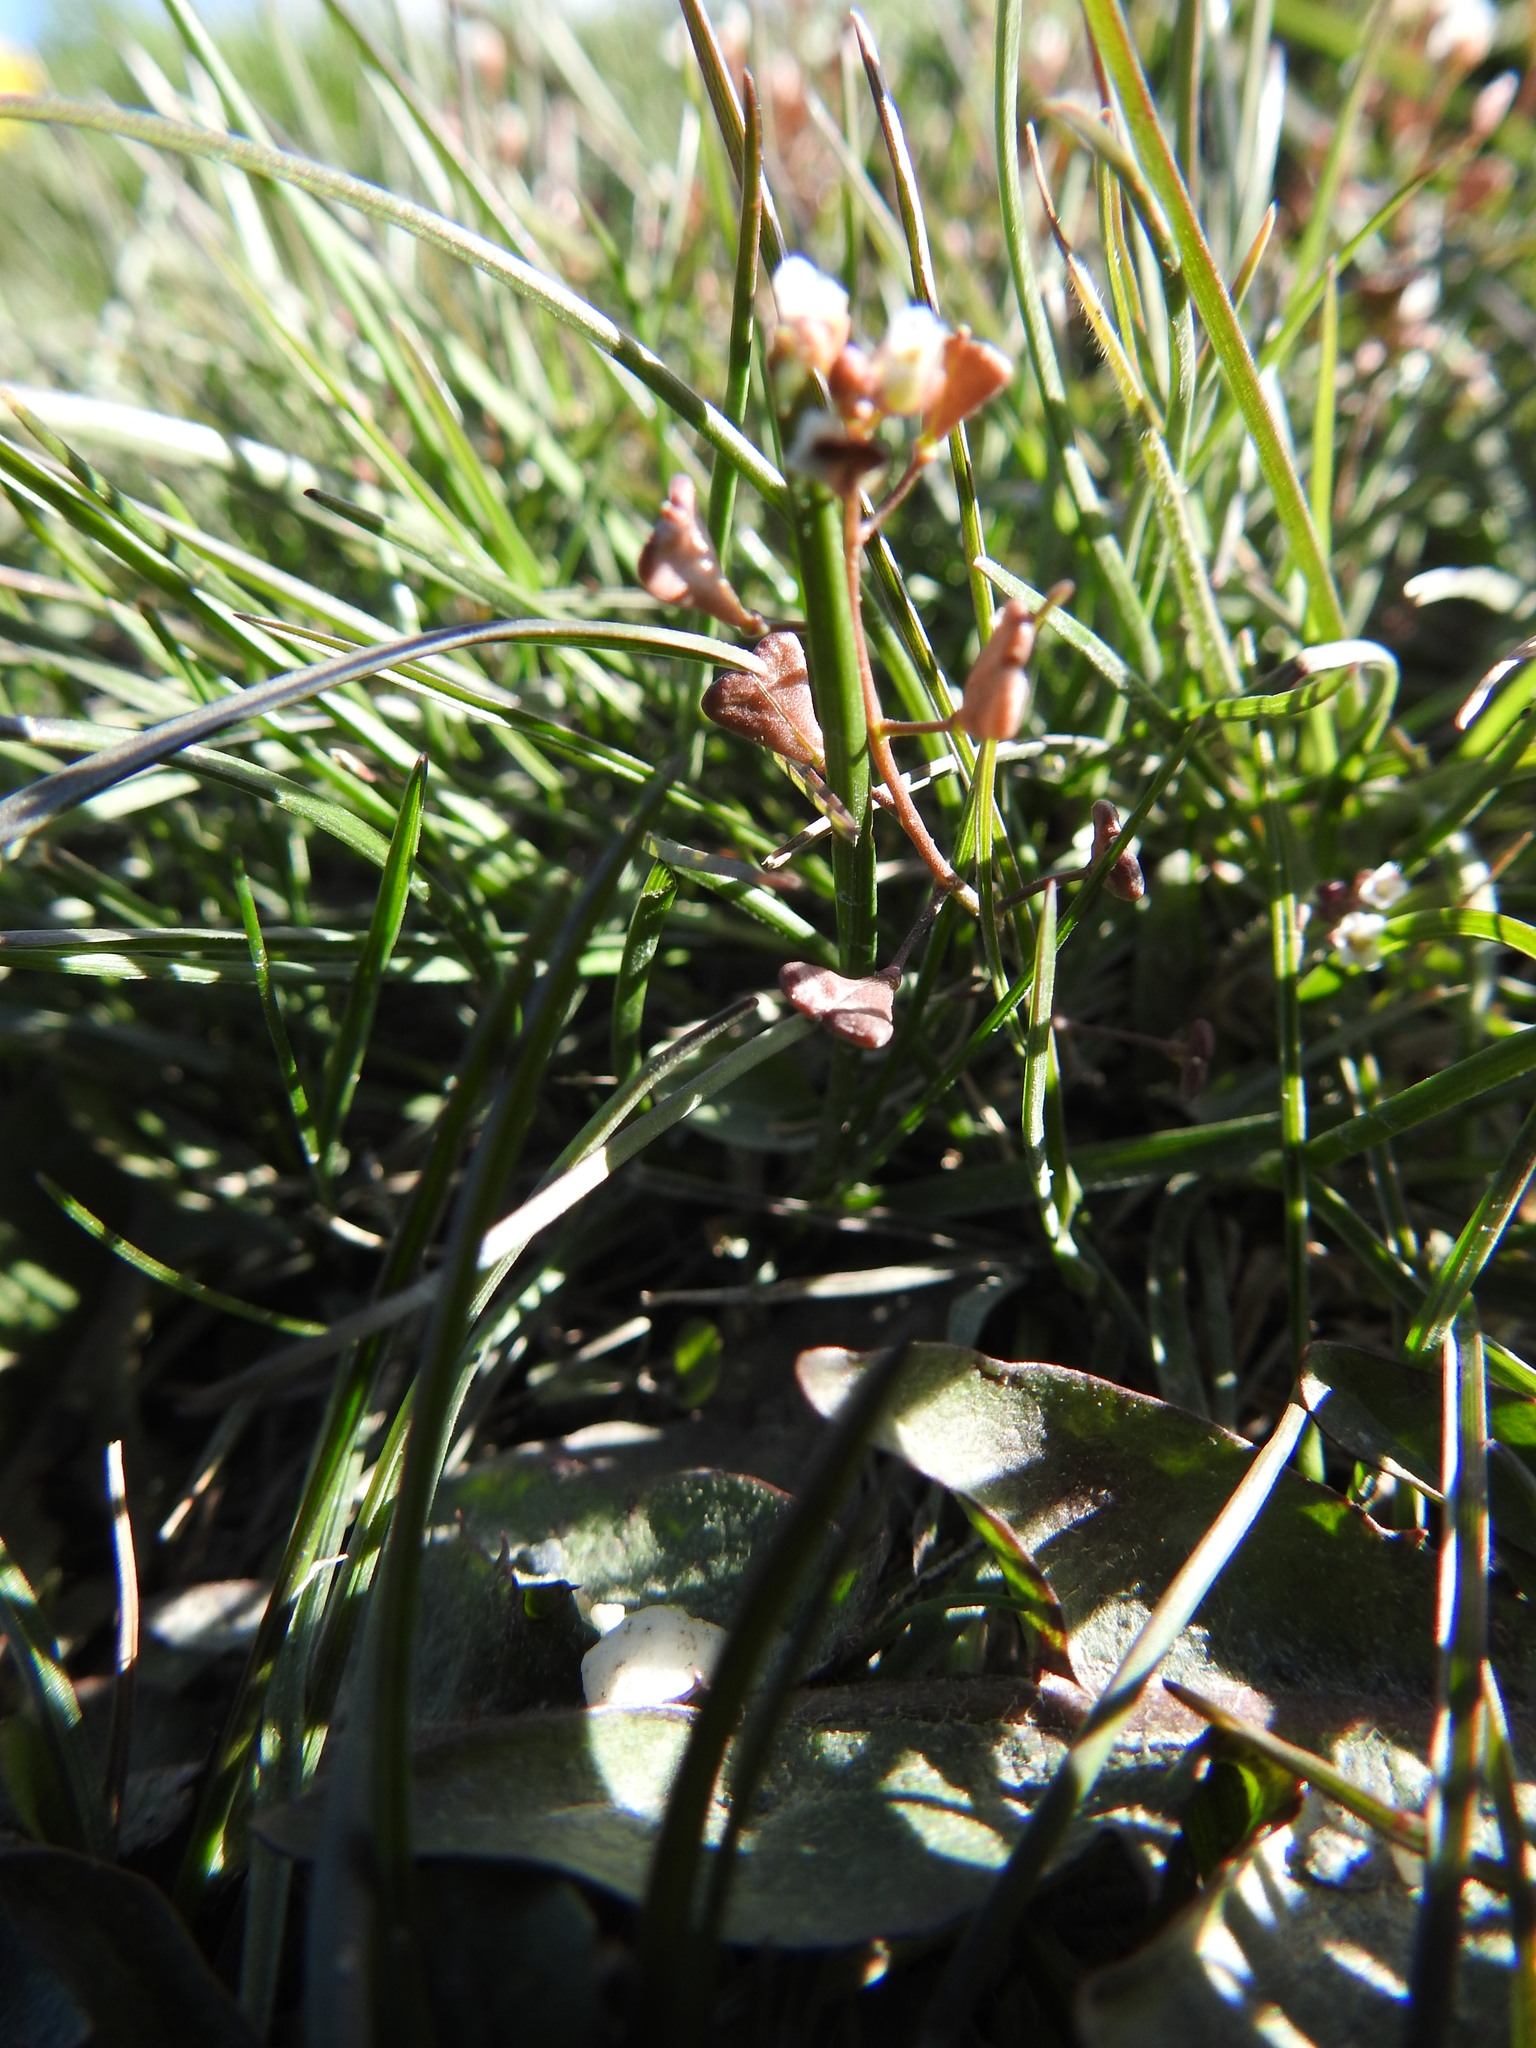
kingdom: Plantae
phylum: Tracheophyta
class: Magnoliopsida
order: Brassicales
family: Brassicaceae
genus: Capsella
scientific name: Capsella bursa-pastoris
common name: Shepherd's purse
